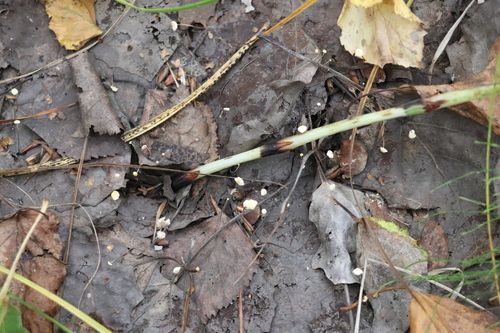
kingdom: Fungi
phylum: Basidiomycota
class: Agaricomycetes
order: Agaricales
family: Marasmiaceae
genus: Marasmius
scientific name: Marasmius epiphyllus
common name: Leaf parachute
